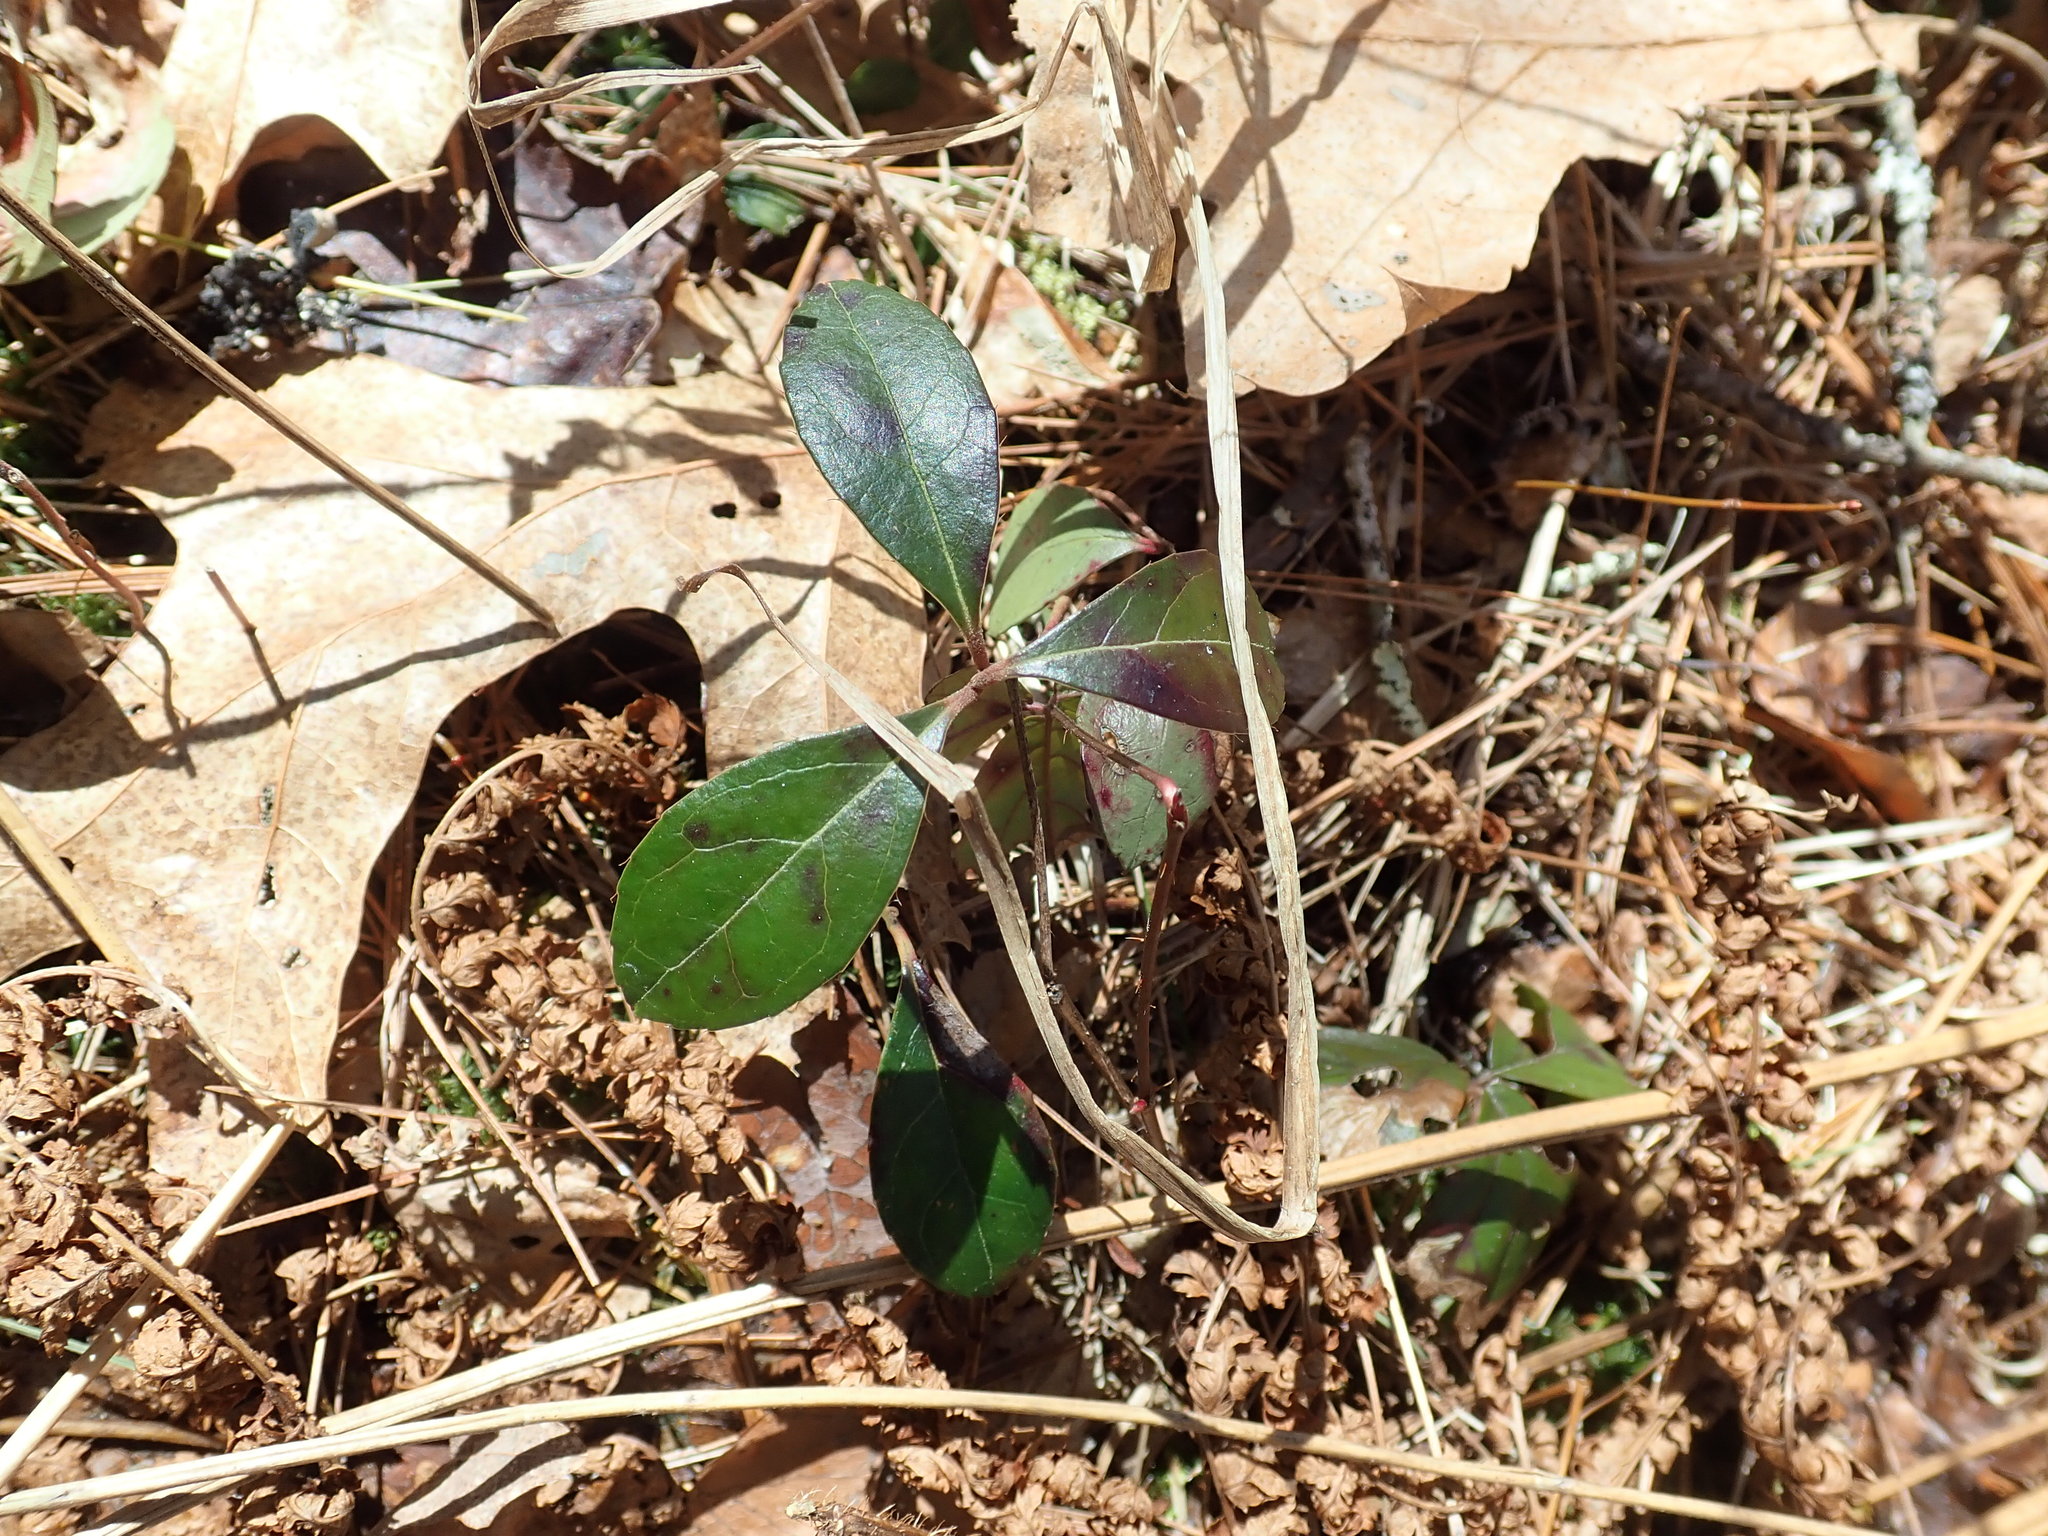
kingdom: Plantae
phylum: Tracheophyta
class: Magnoliopsida
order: Ericales
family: Ericaceae
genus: Gaultheria
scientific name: Gaultheria procumbens
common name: Checkerberry
